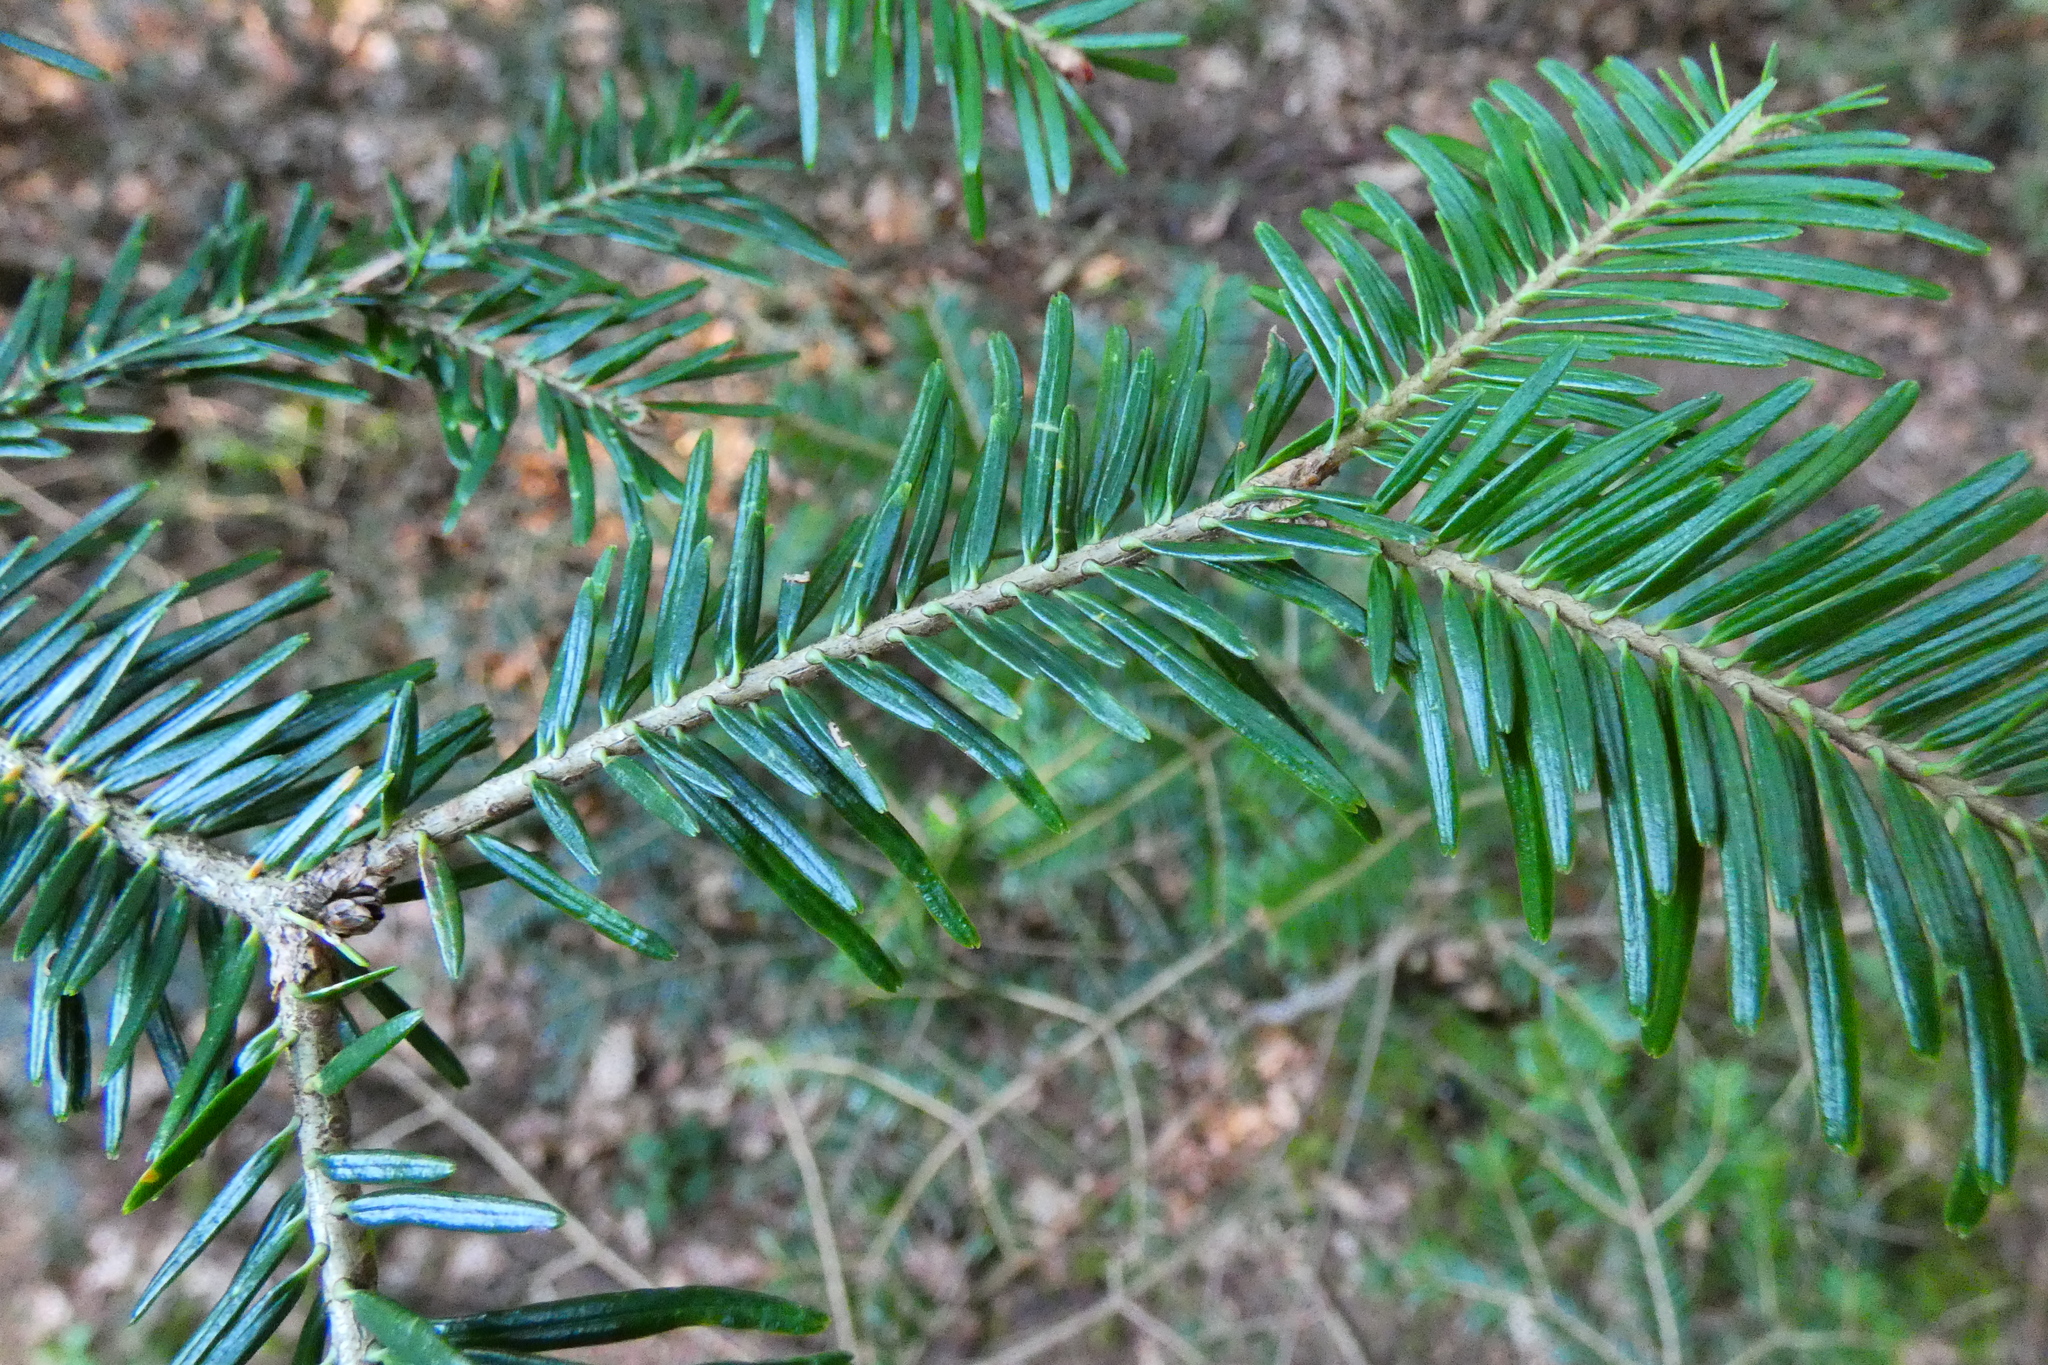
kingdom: Plantae
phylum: Tracheophyta
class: Pinopsida
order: Pinales
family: Pinaceae
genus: Abies
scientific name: Abies alba
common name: Silver fir
